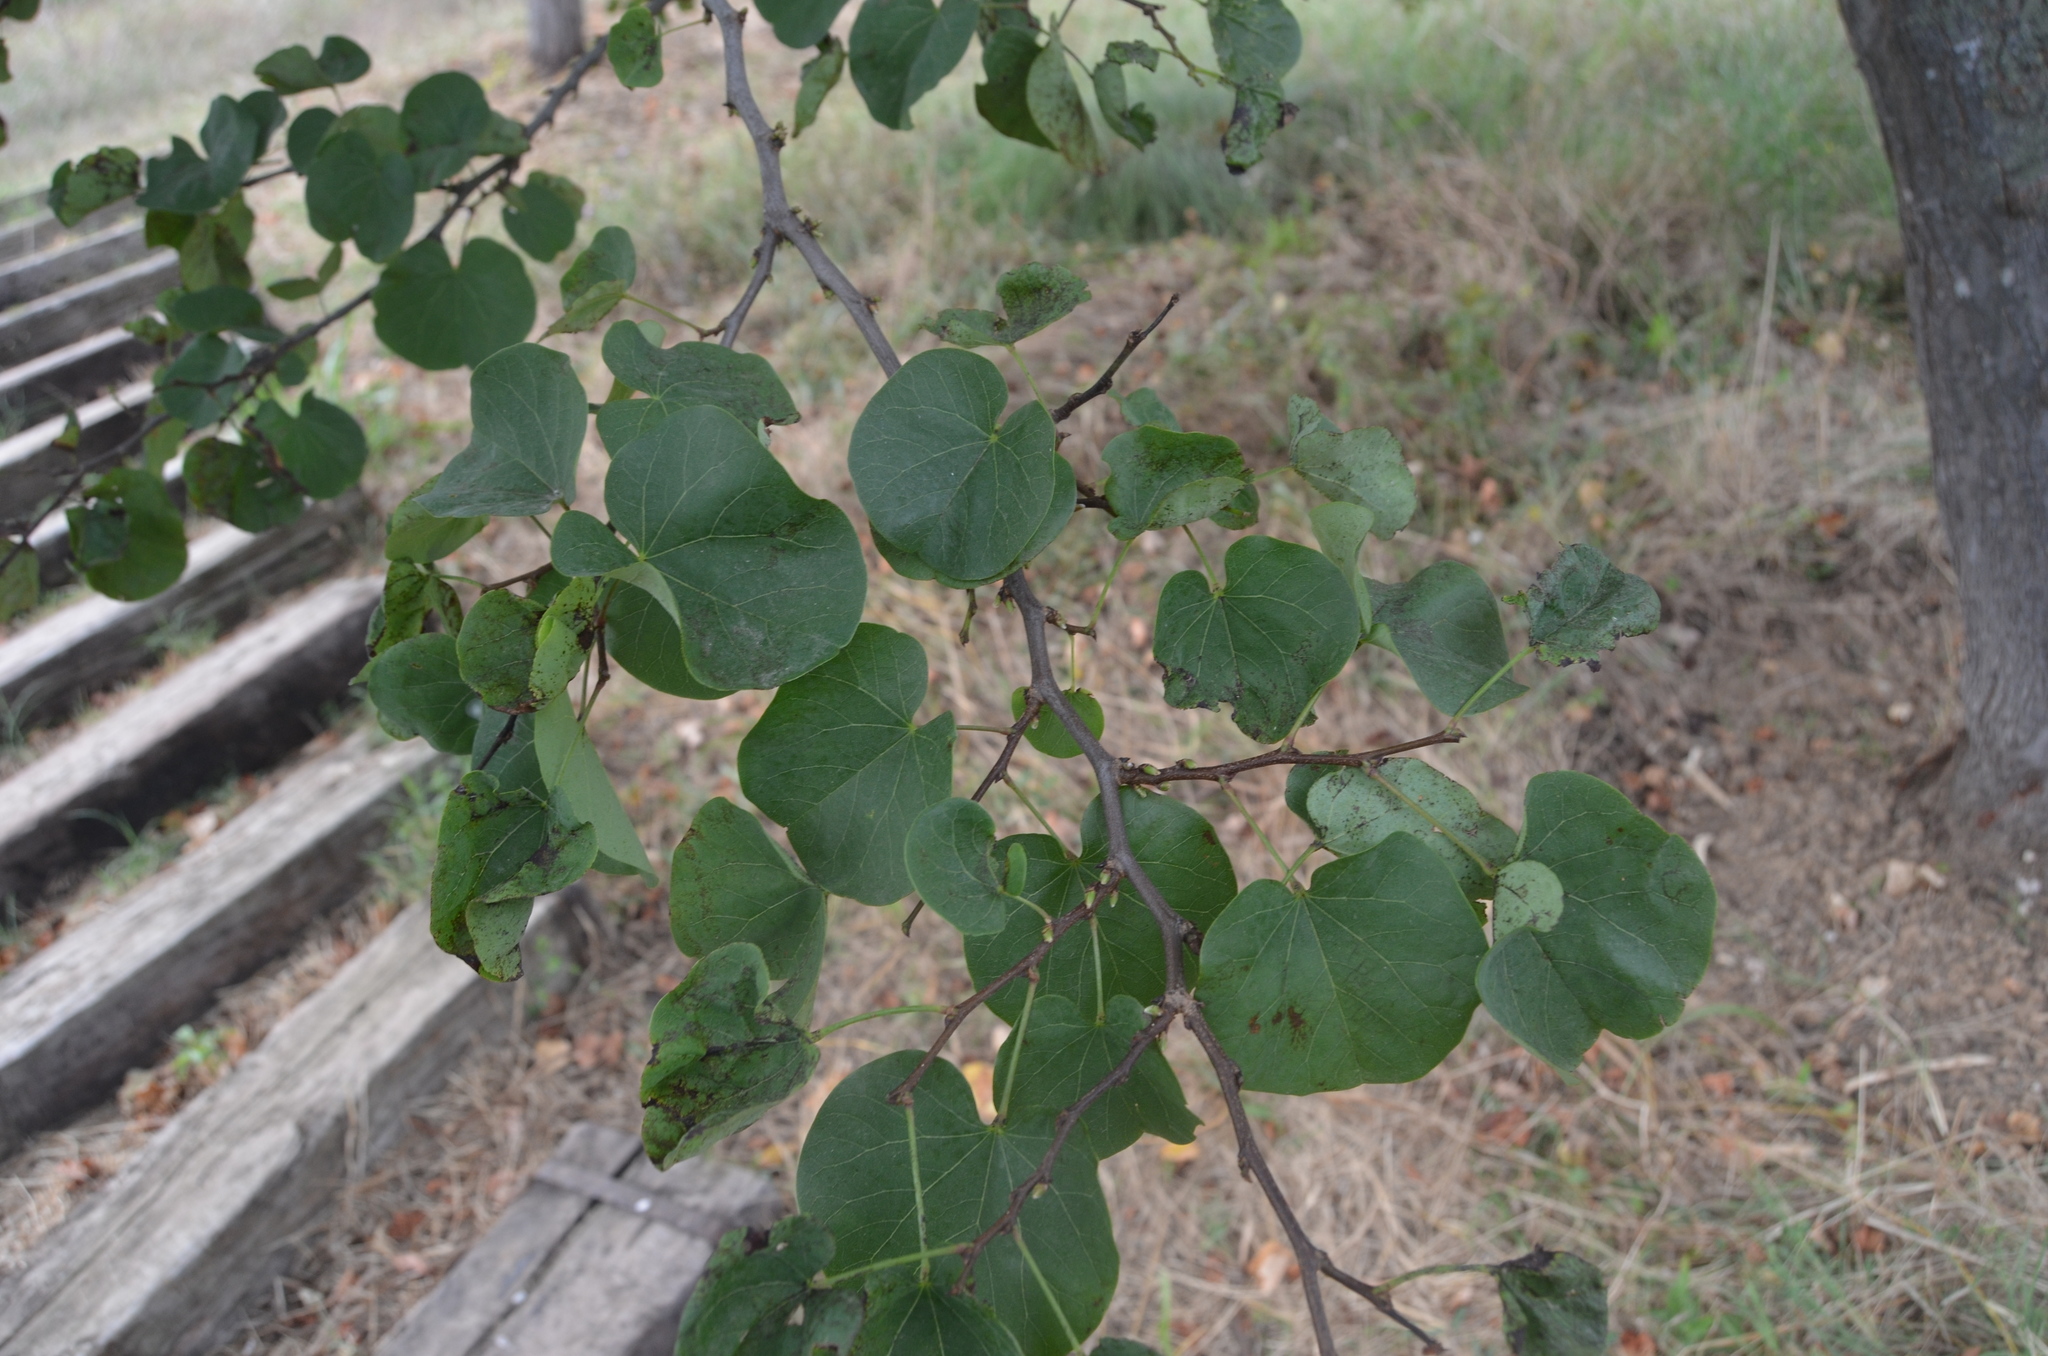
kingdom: Plantae
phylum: Tracheophyta
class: Magnoliopsida
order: Fabales
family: Fabaceae
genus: Cercis
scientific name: Cercis siliquastrum
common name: Judas tree
